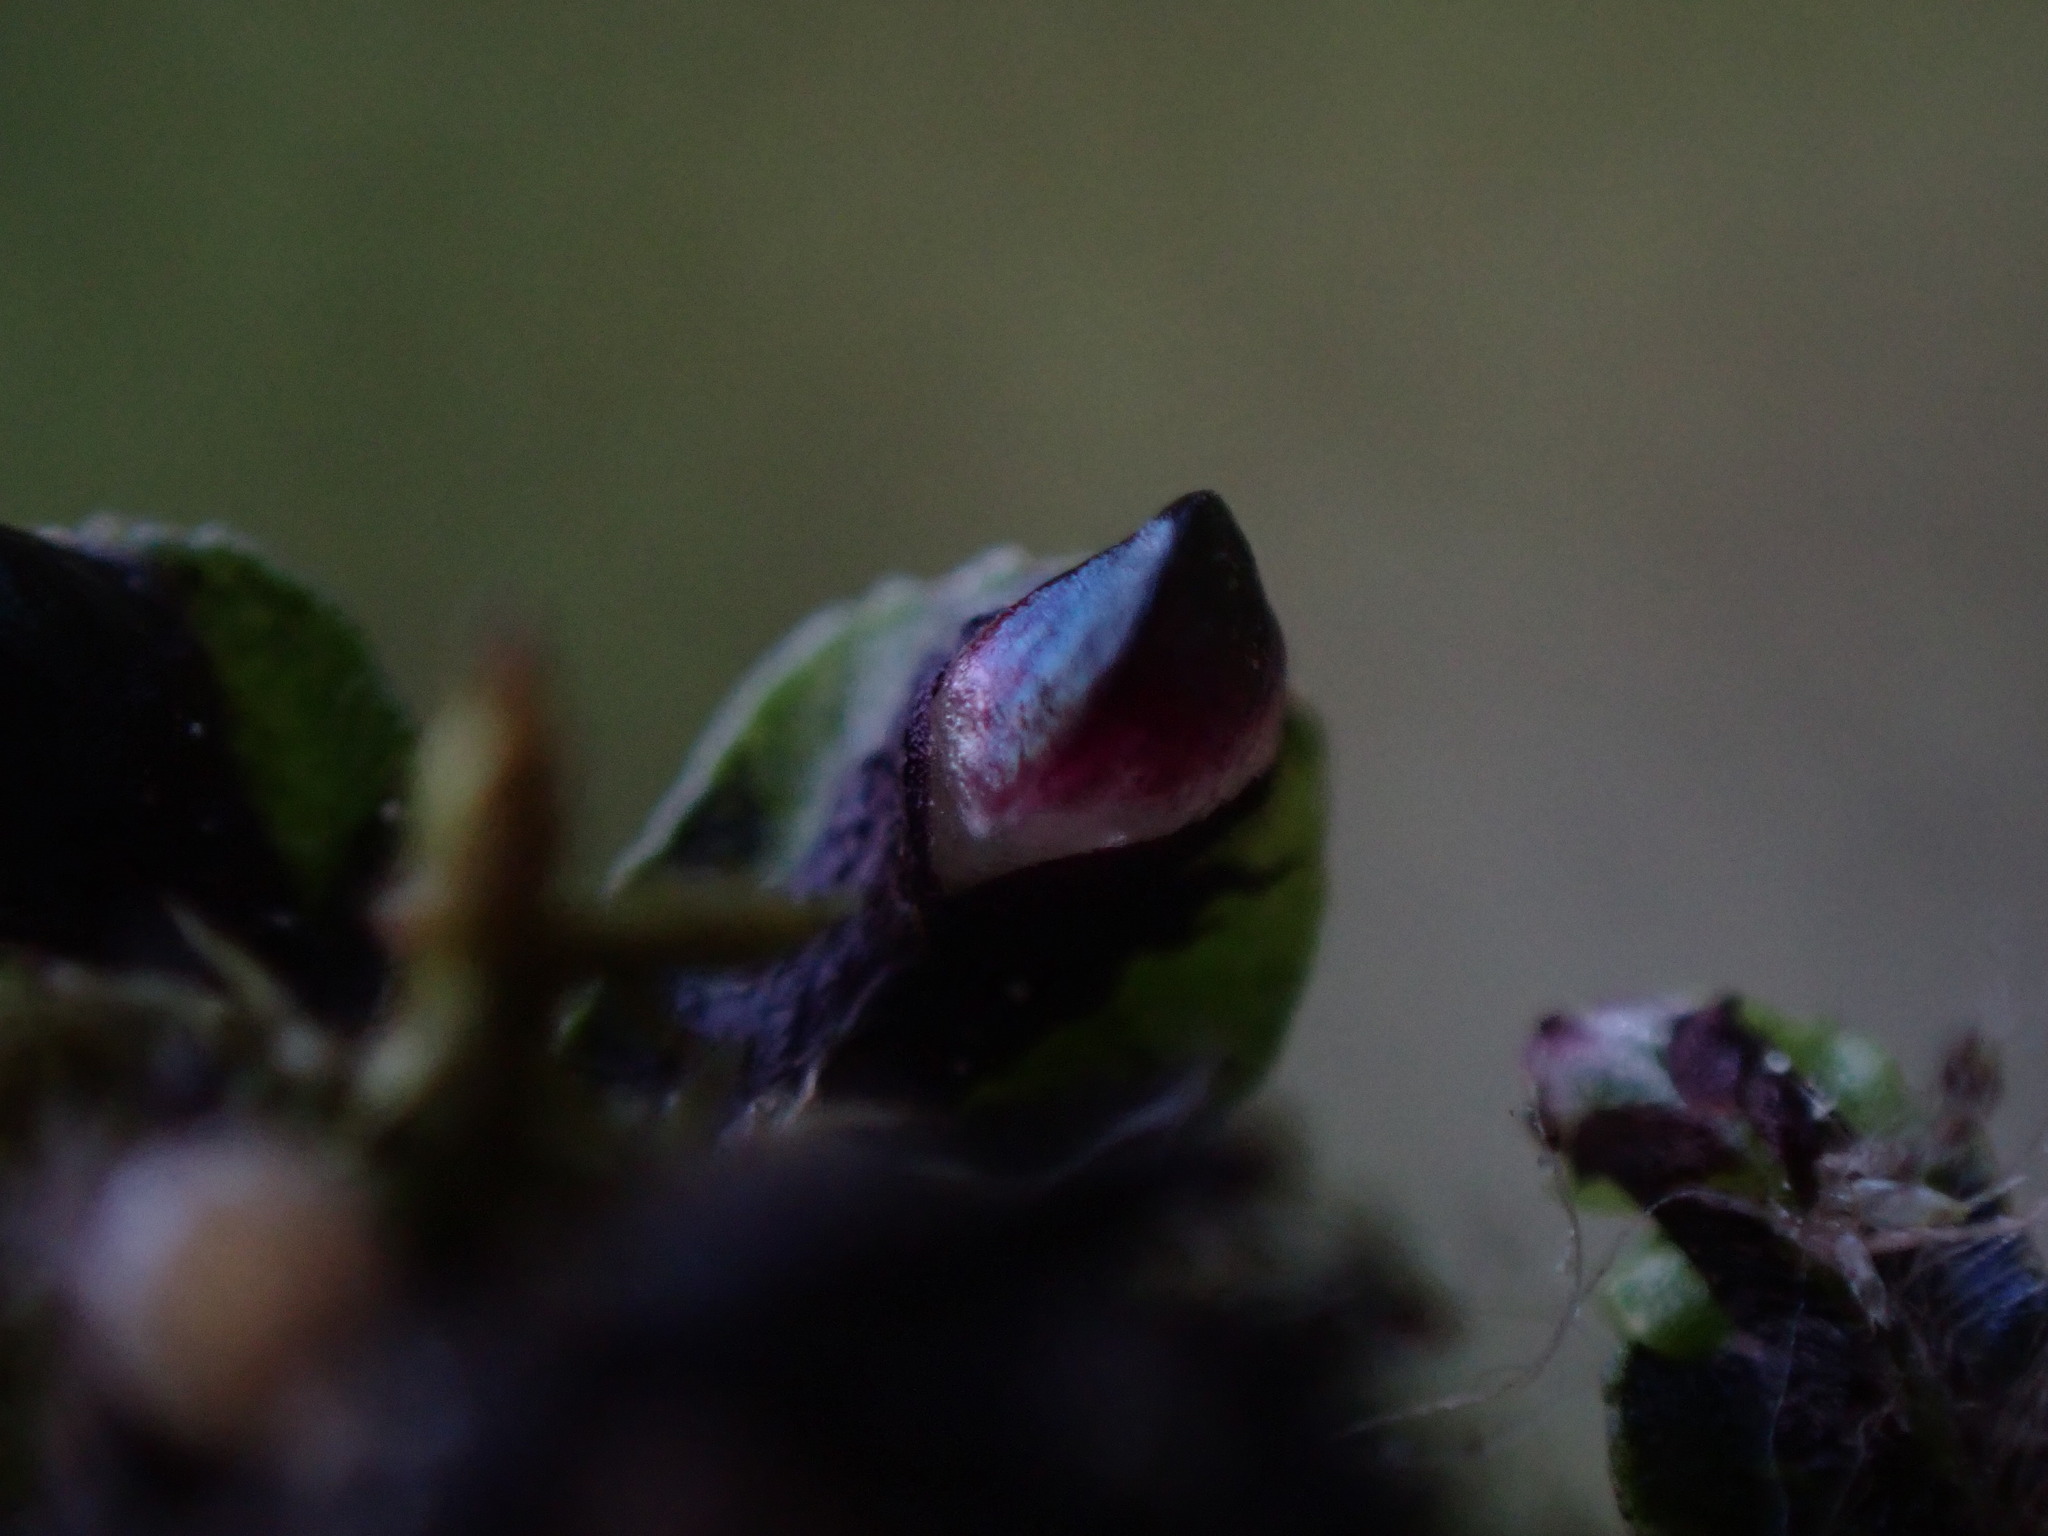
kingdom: Plantae
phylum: Marchantiophyta
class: Marchantiopsida
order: Marchantiales
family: Targioniaceae
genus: Targionia
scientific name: Targionia hypophylla
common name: Orobus-seed liverwort
